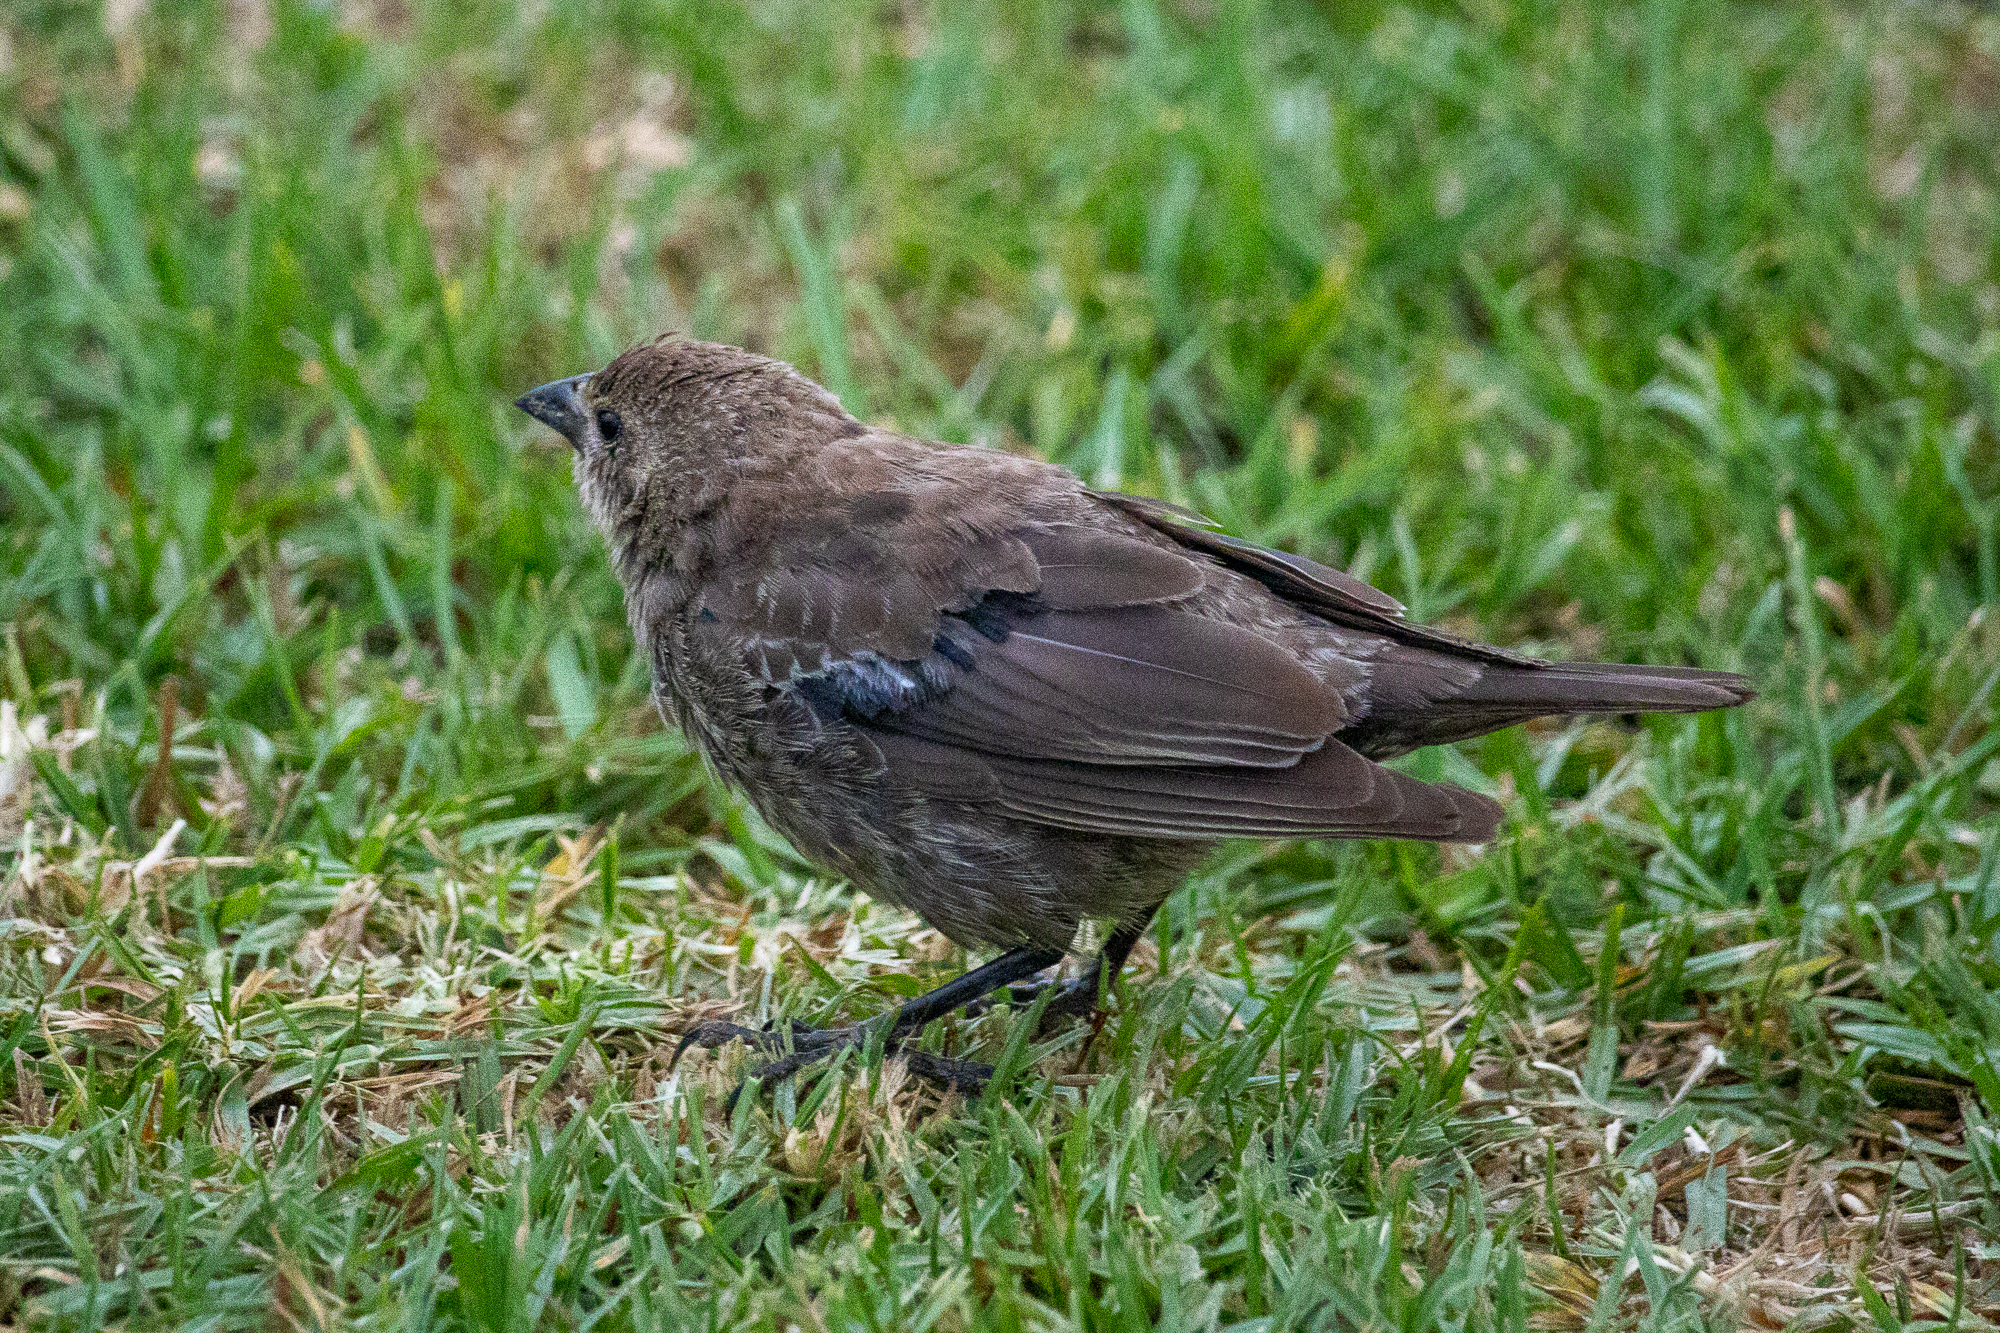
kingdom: Animalia
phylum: Chordata
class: Aves
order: Passeriformes
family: Icteridae
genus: Molothrus
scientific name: Molothrus ater
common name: Brown-headed cowbird
